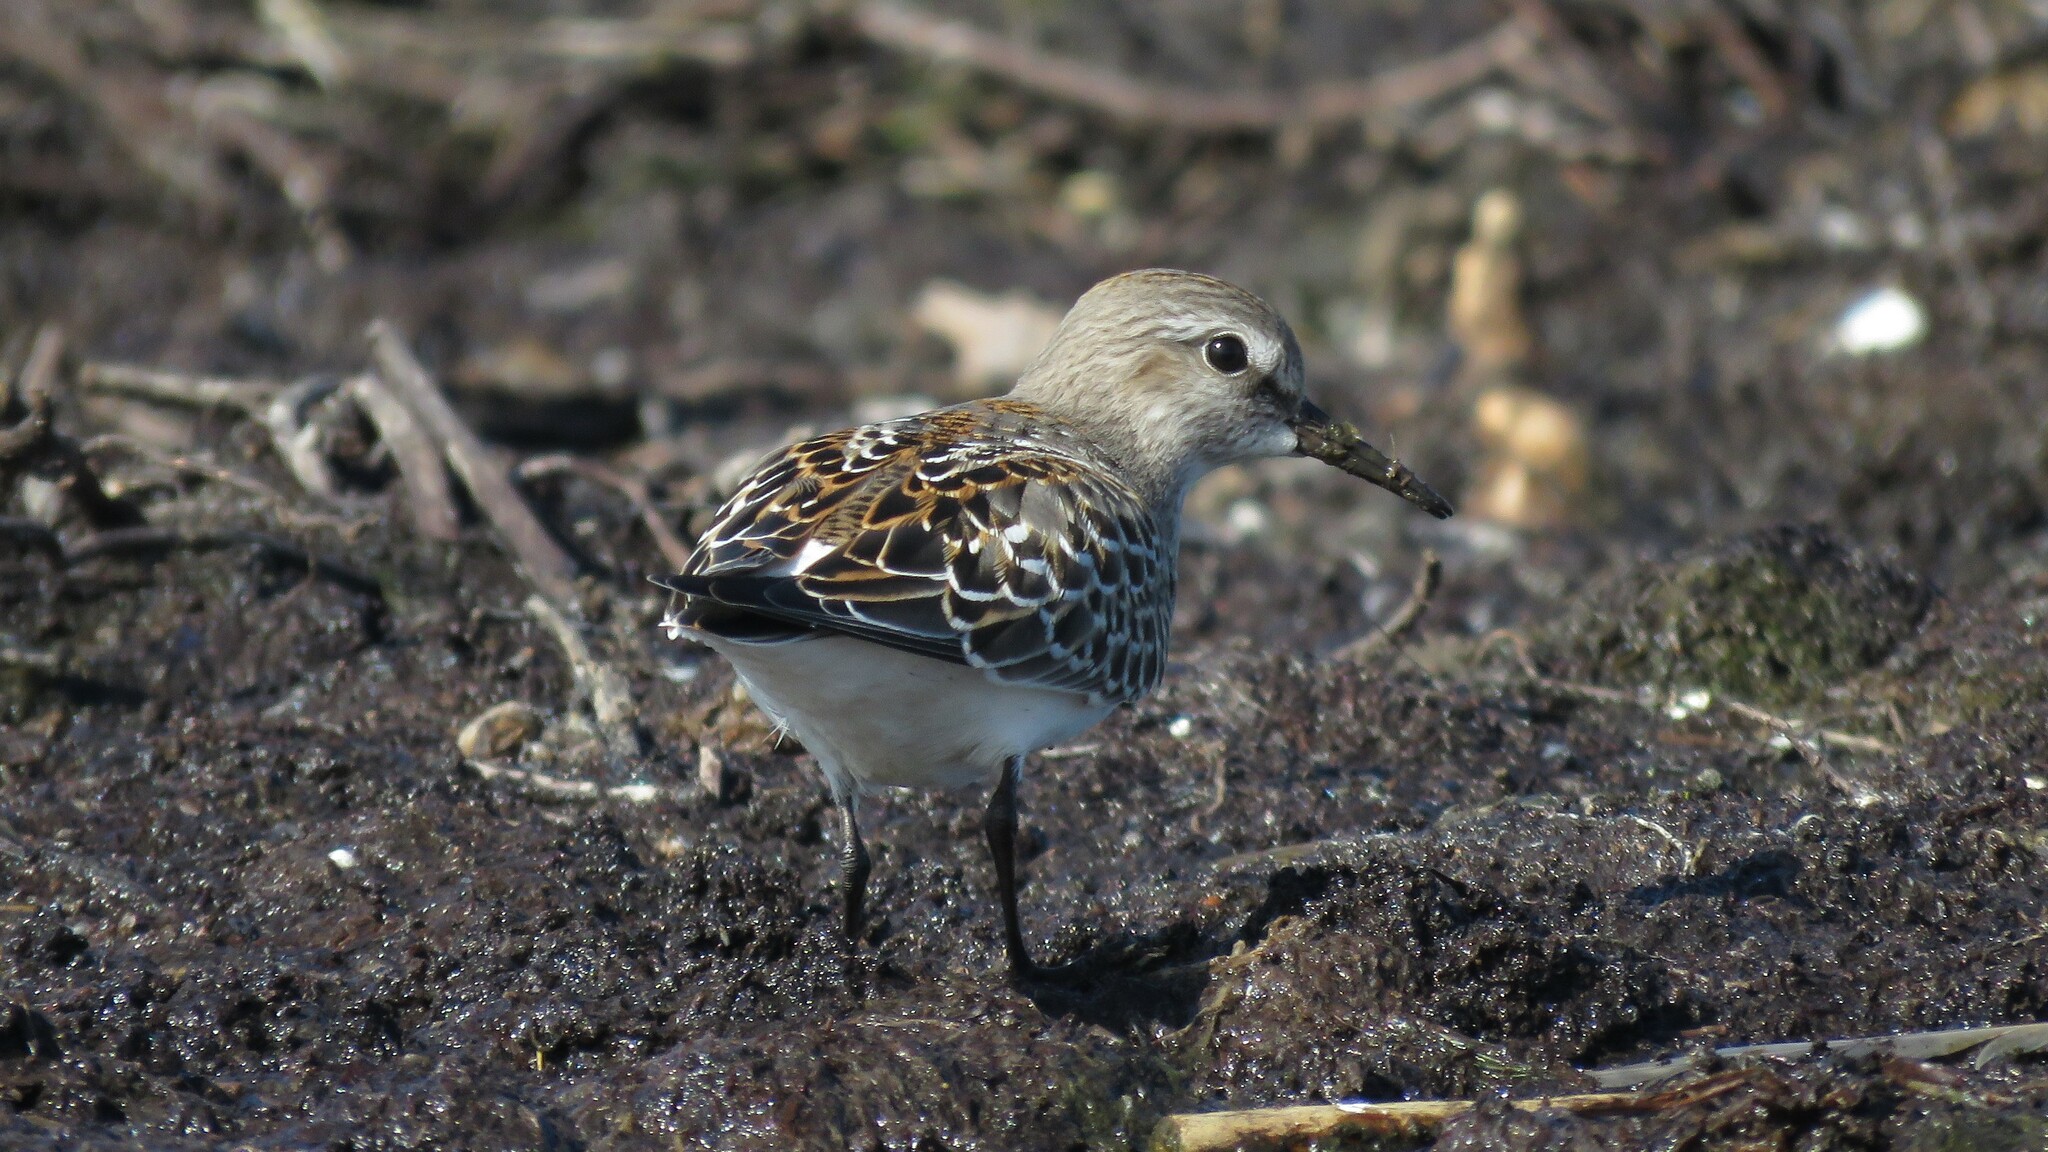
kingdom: Animalia
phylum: Chordata
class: Aves
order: Charadriiformes
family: Scolopacidae
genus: Calidris
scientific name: Calidris fuscicollis
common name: White-rumped sandpiper
